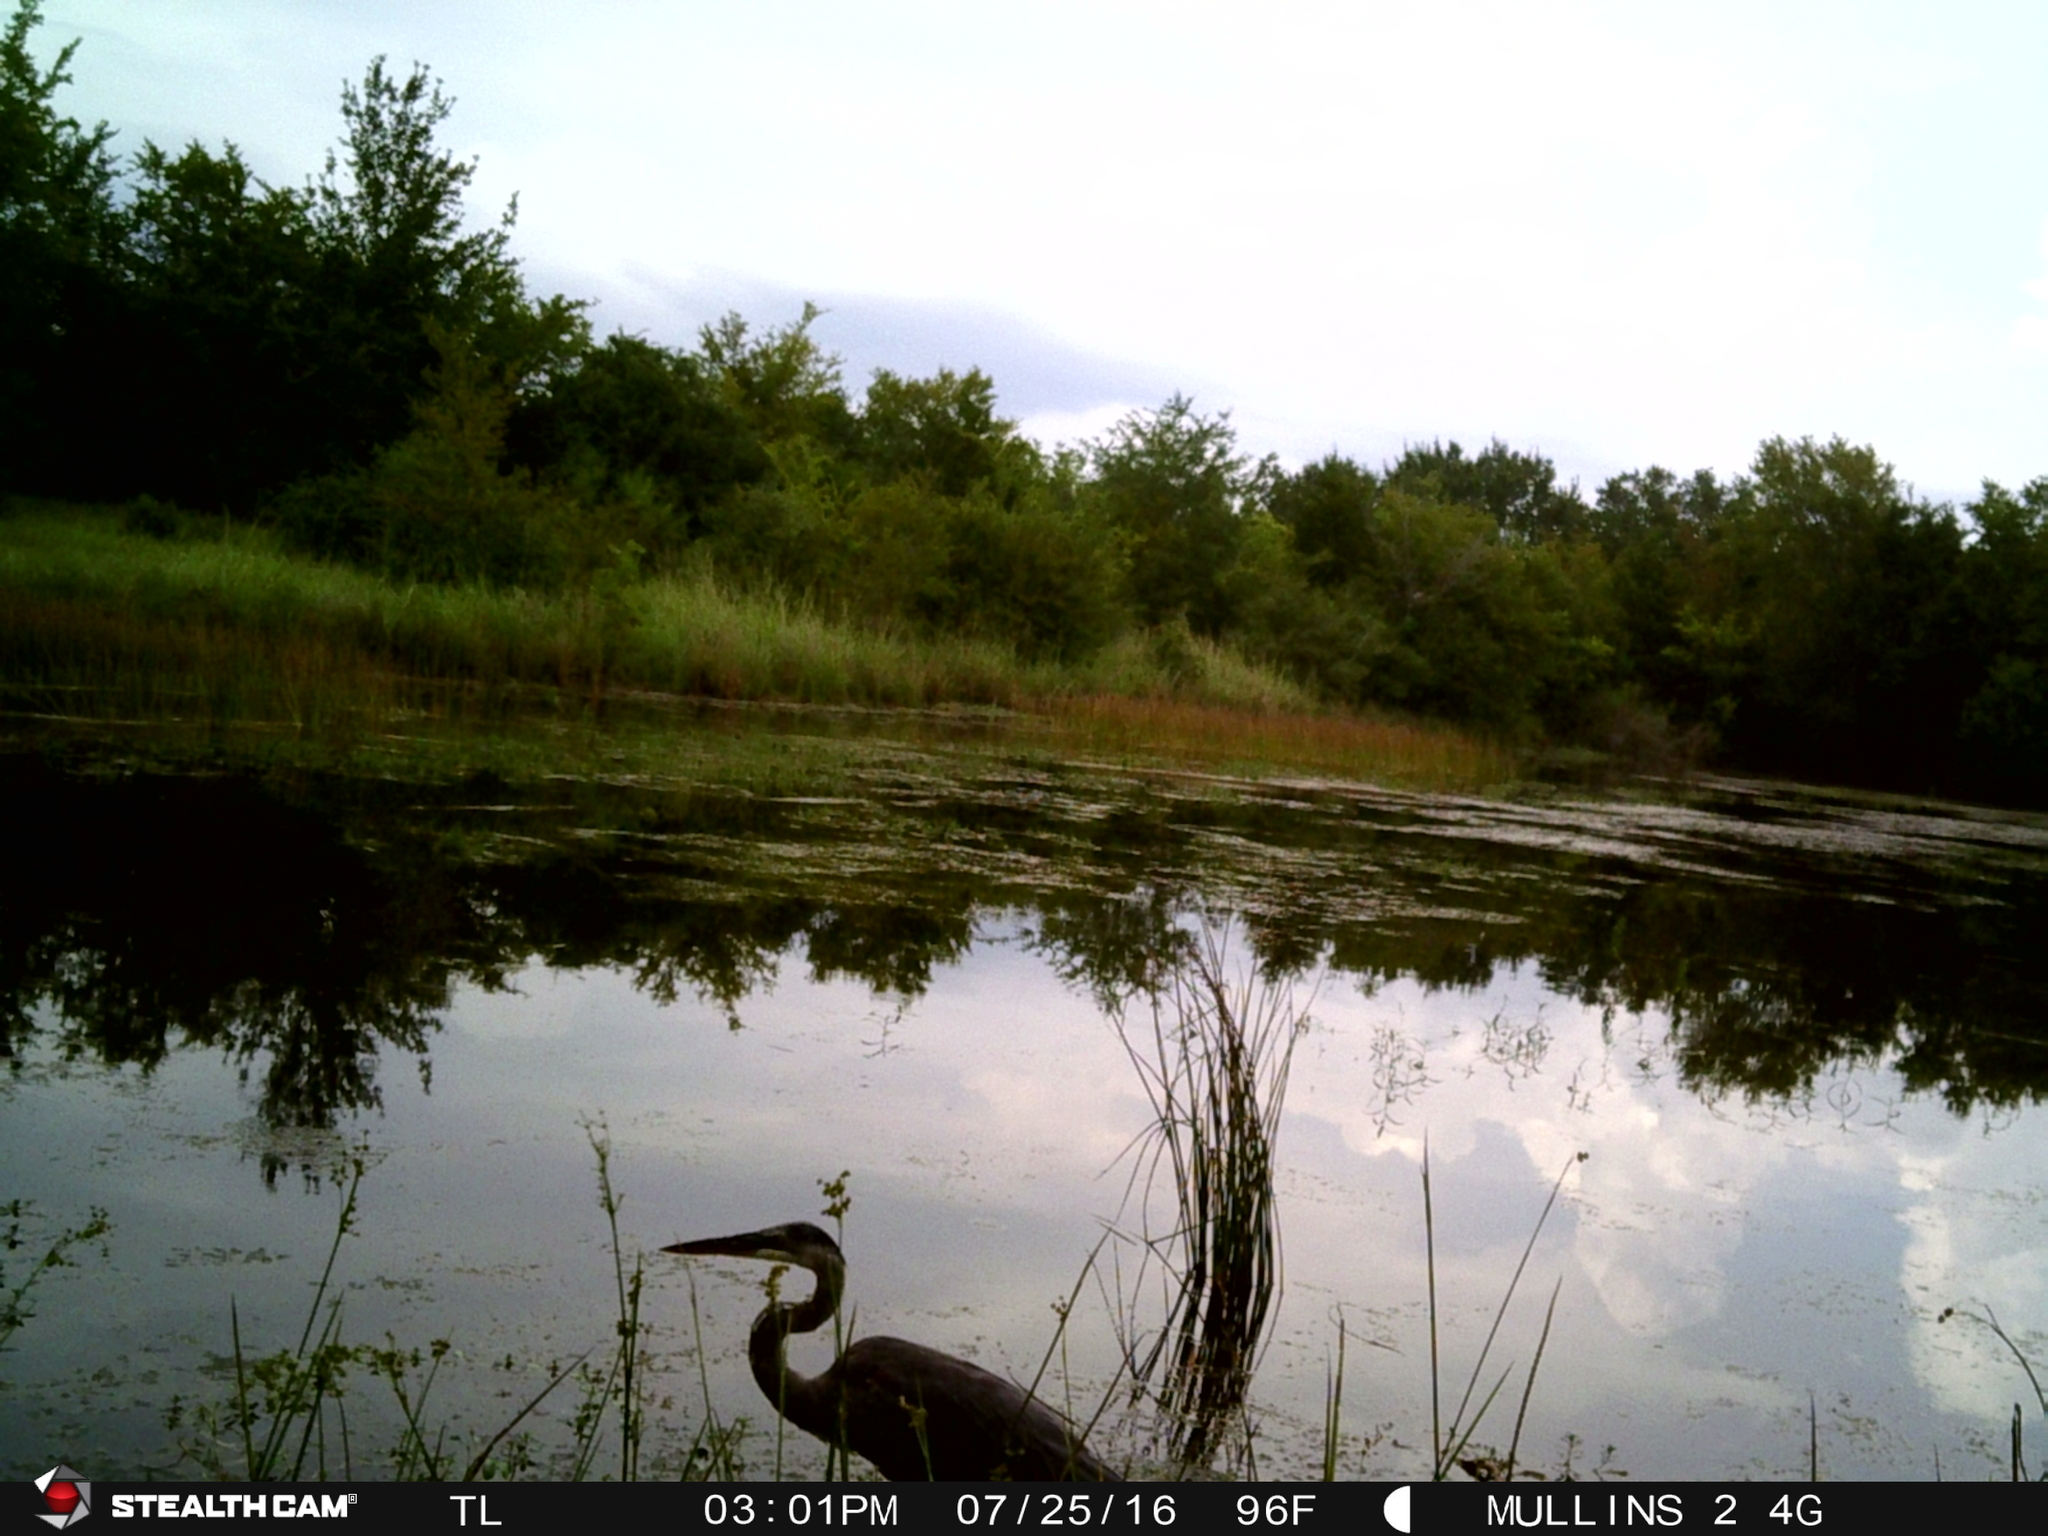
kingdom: Animalia
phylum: Chordata
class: Aves
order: Pelecaniformes
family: Ardeidae
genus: Ardea
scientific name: Ardea herodias
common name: Great blue heron
